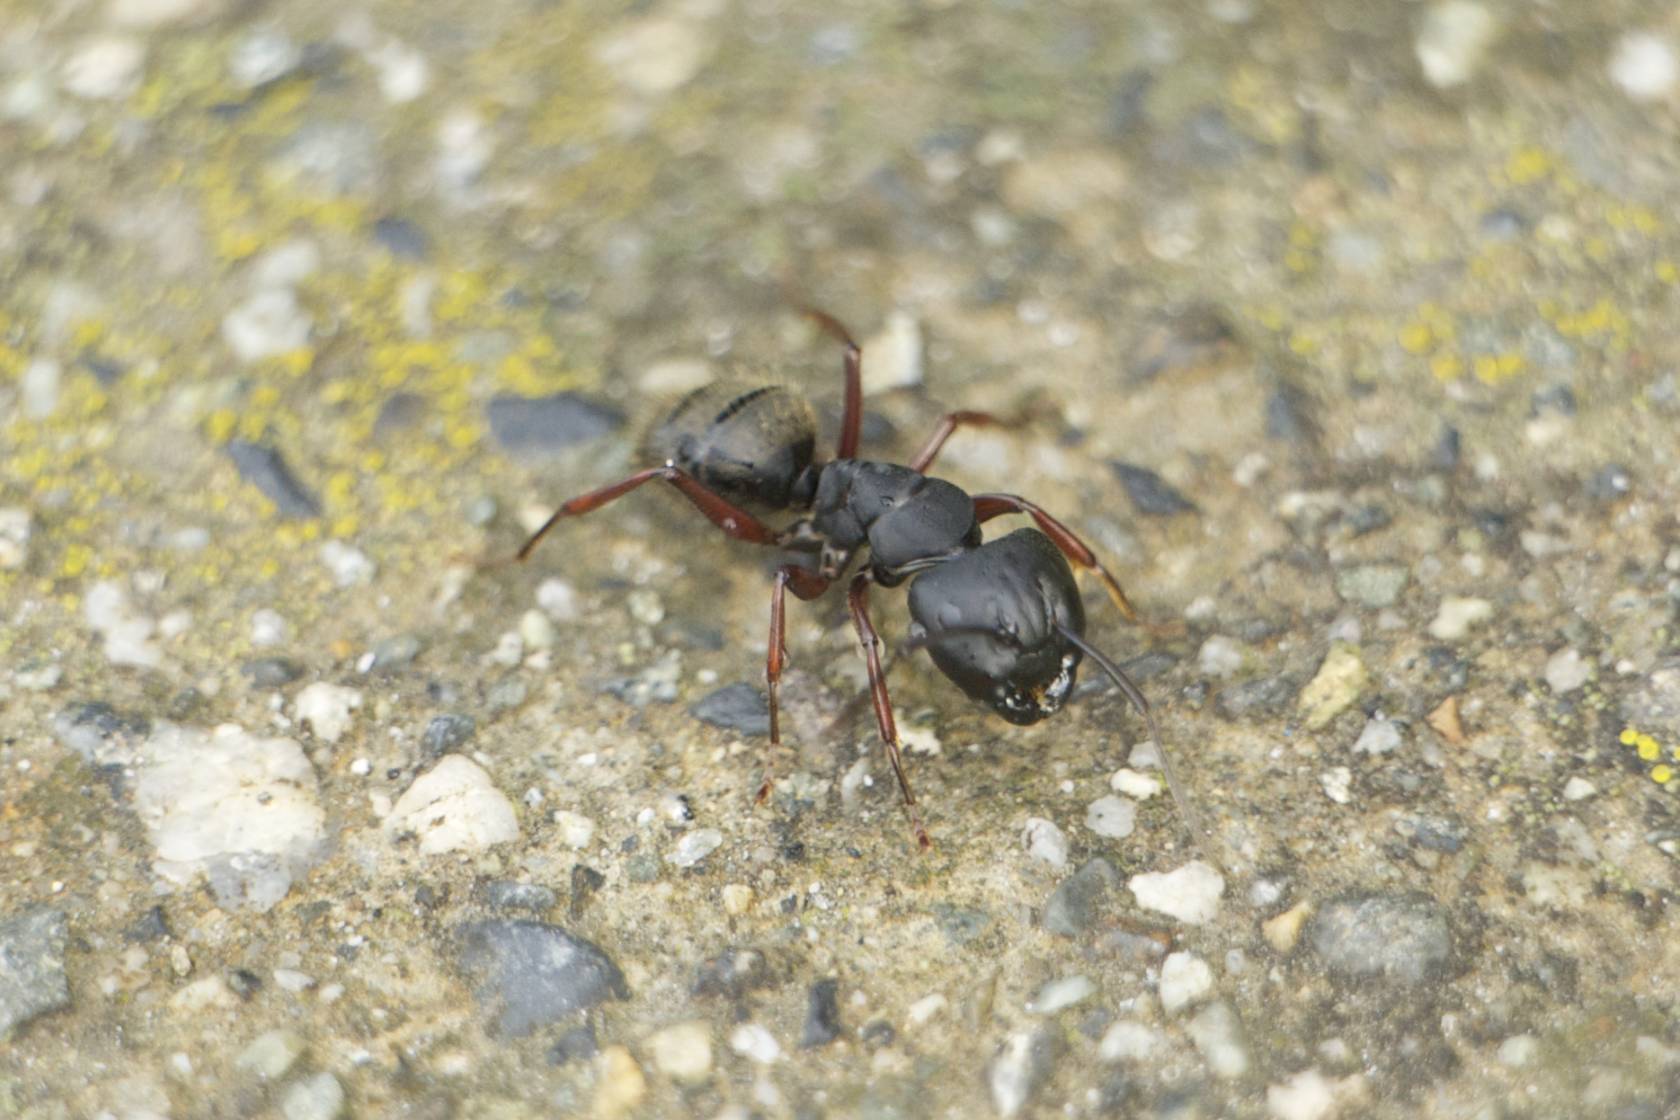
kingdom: Animalia
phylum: Arthropoda
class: Insecta
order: Hymenoptera
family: Formicidae
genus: Camponotus
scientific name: Camponotus modoc
